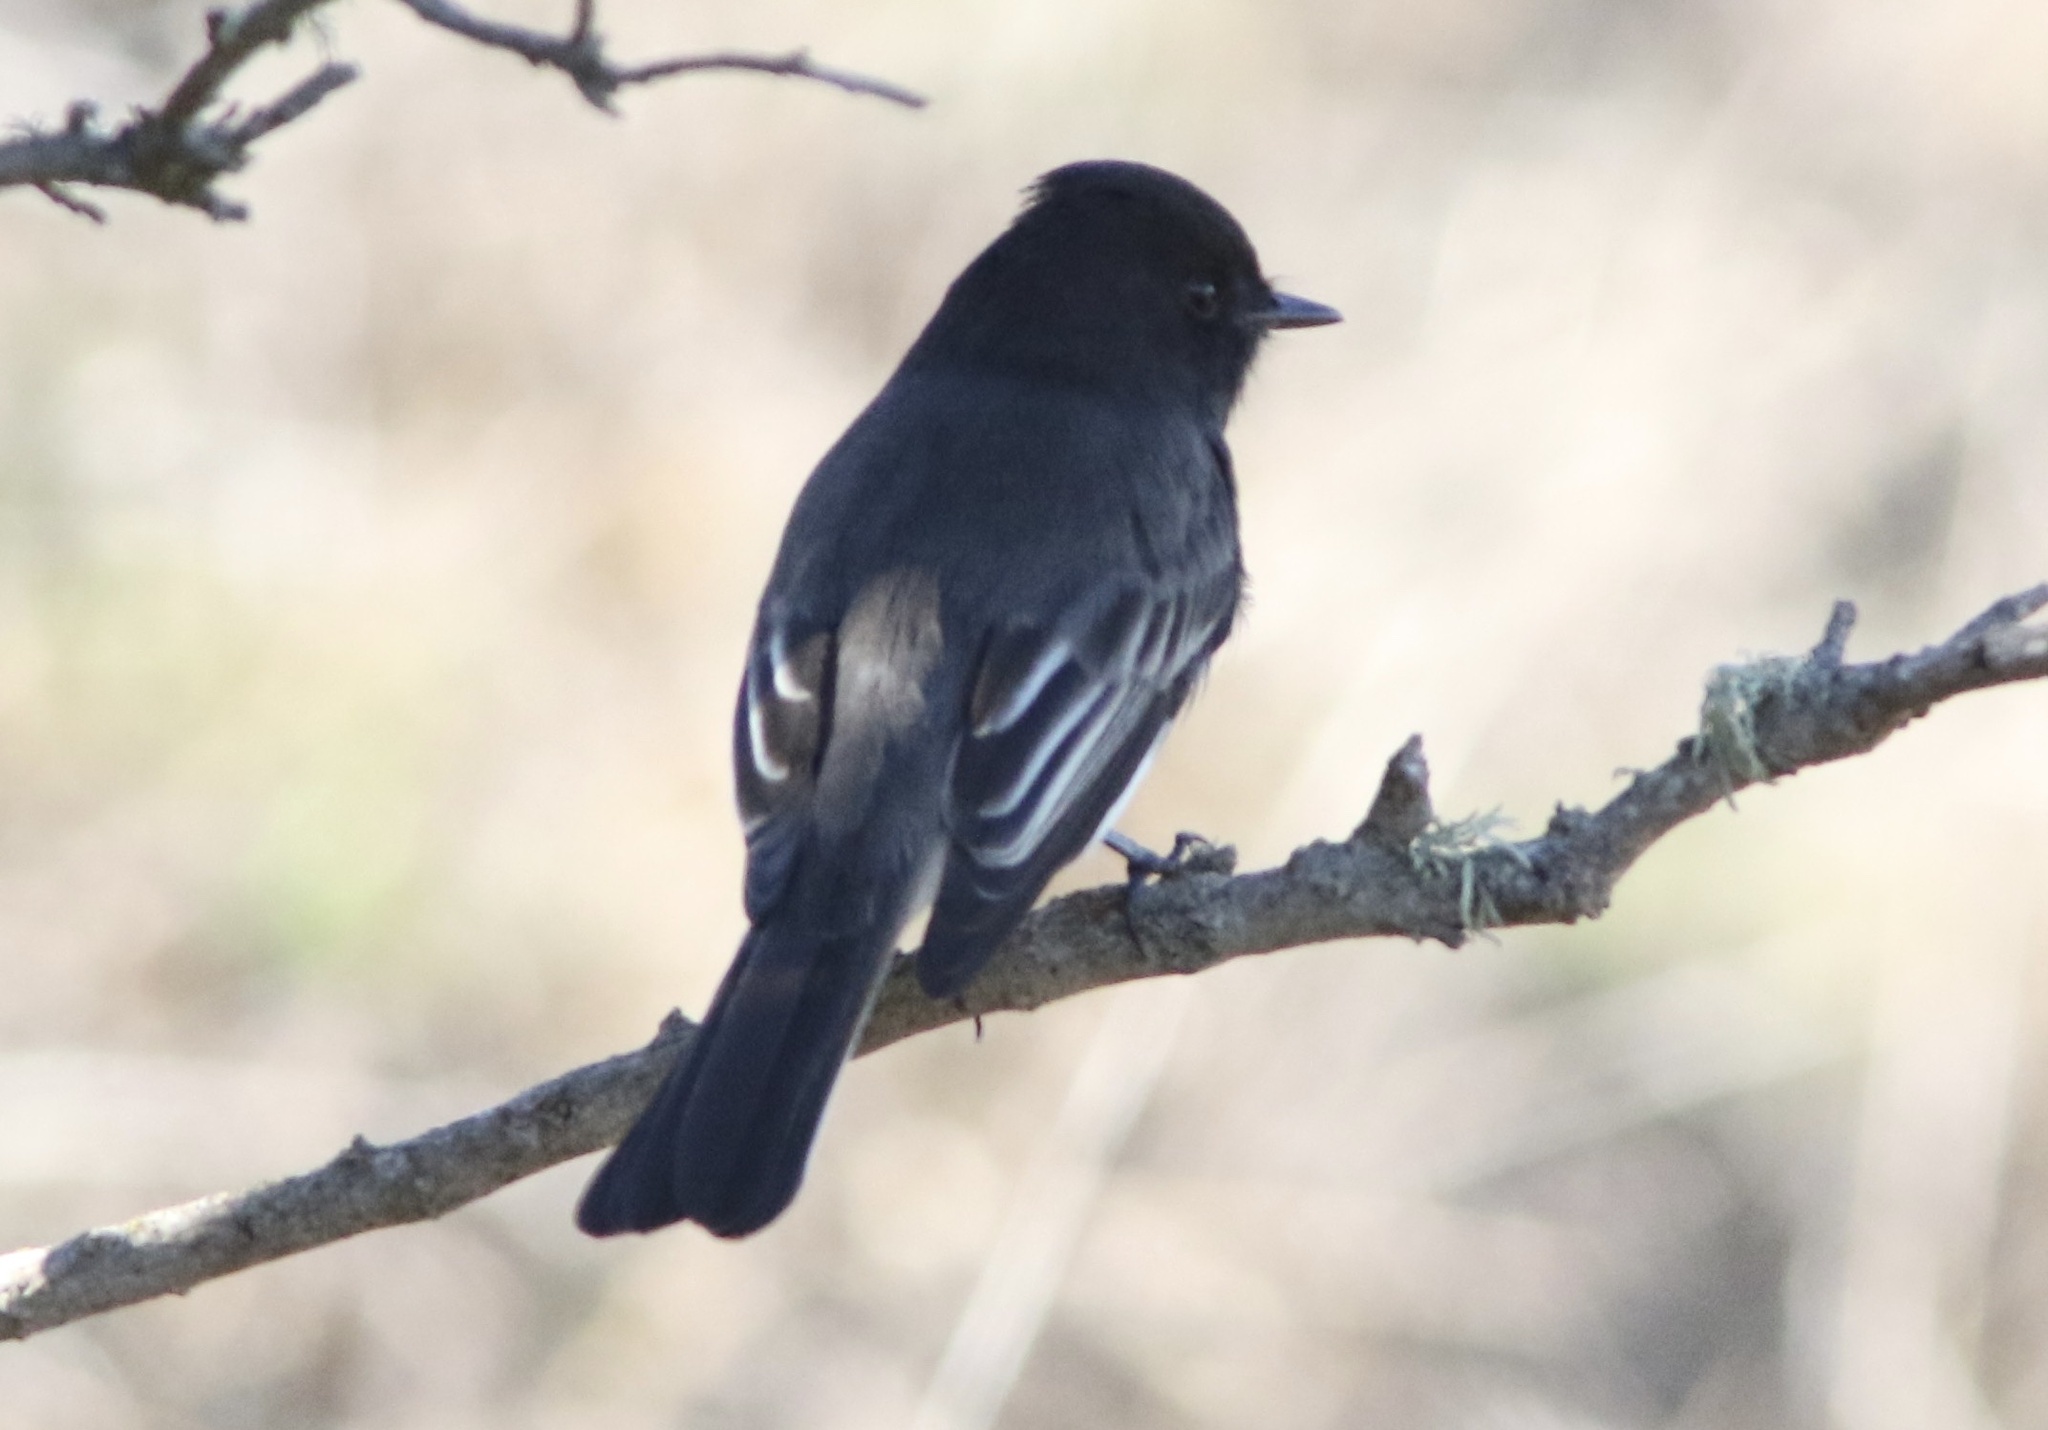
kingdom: Animalia
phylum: Chordata
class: Aves
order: Passeriformes
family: Tyrannidae
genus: Sayornis
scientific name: Sayornis nigricans
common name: Black phoebe
